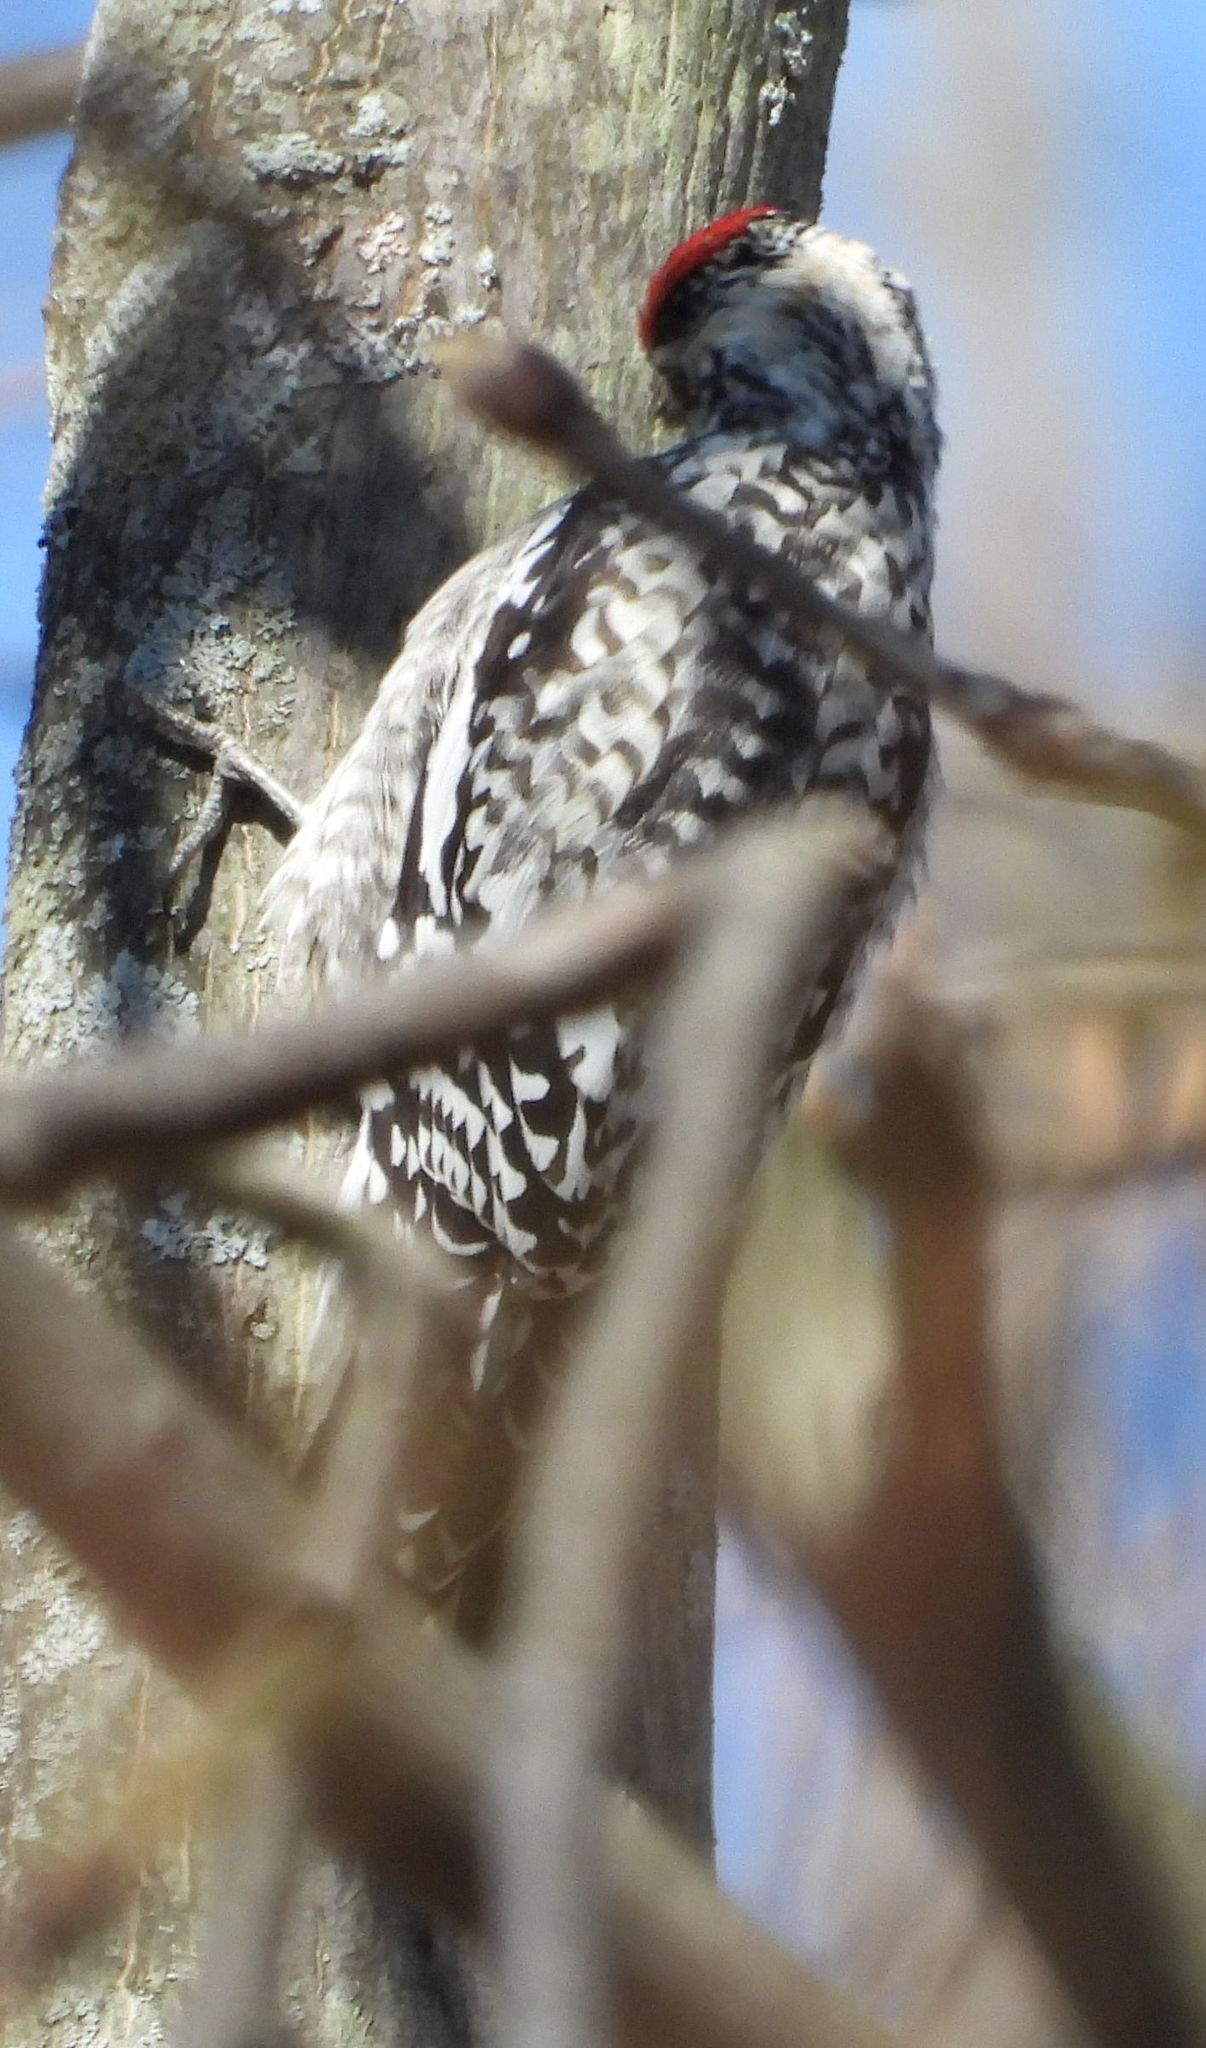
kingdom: Animalia
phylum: Chordata
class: Aves
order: Piciformes
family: Picidae
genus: Sphyrapicus
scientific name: Sphyrapicus varius
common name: Yellow-bellied sapsucker
